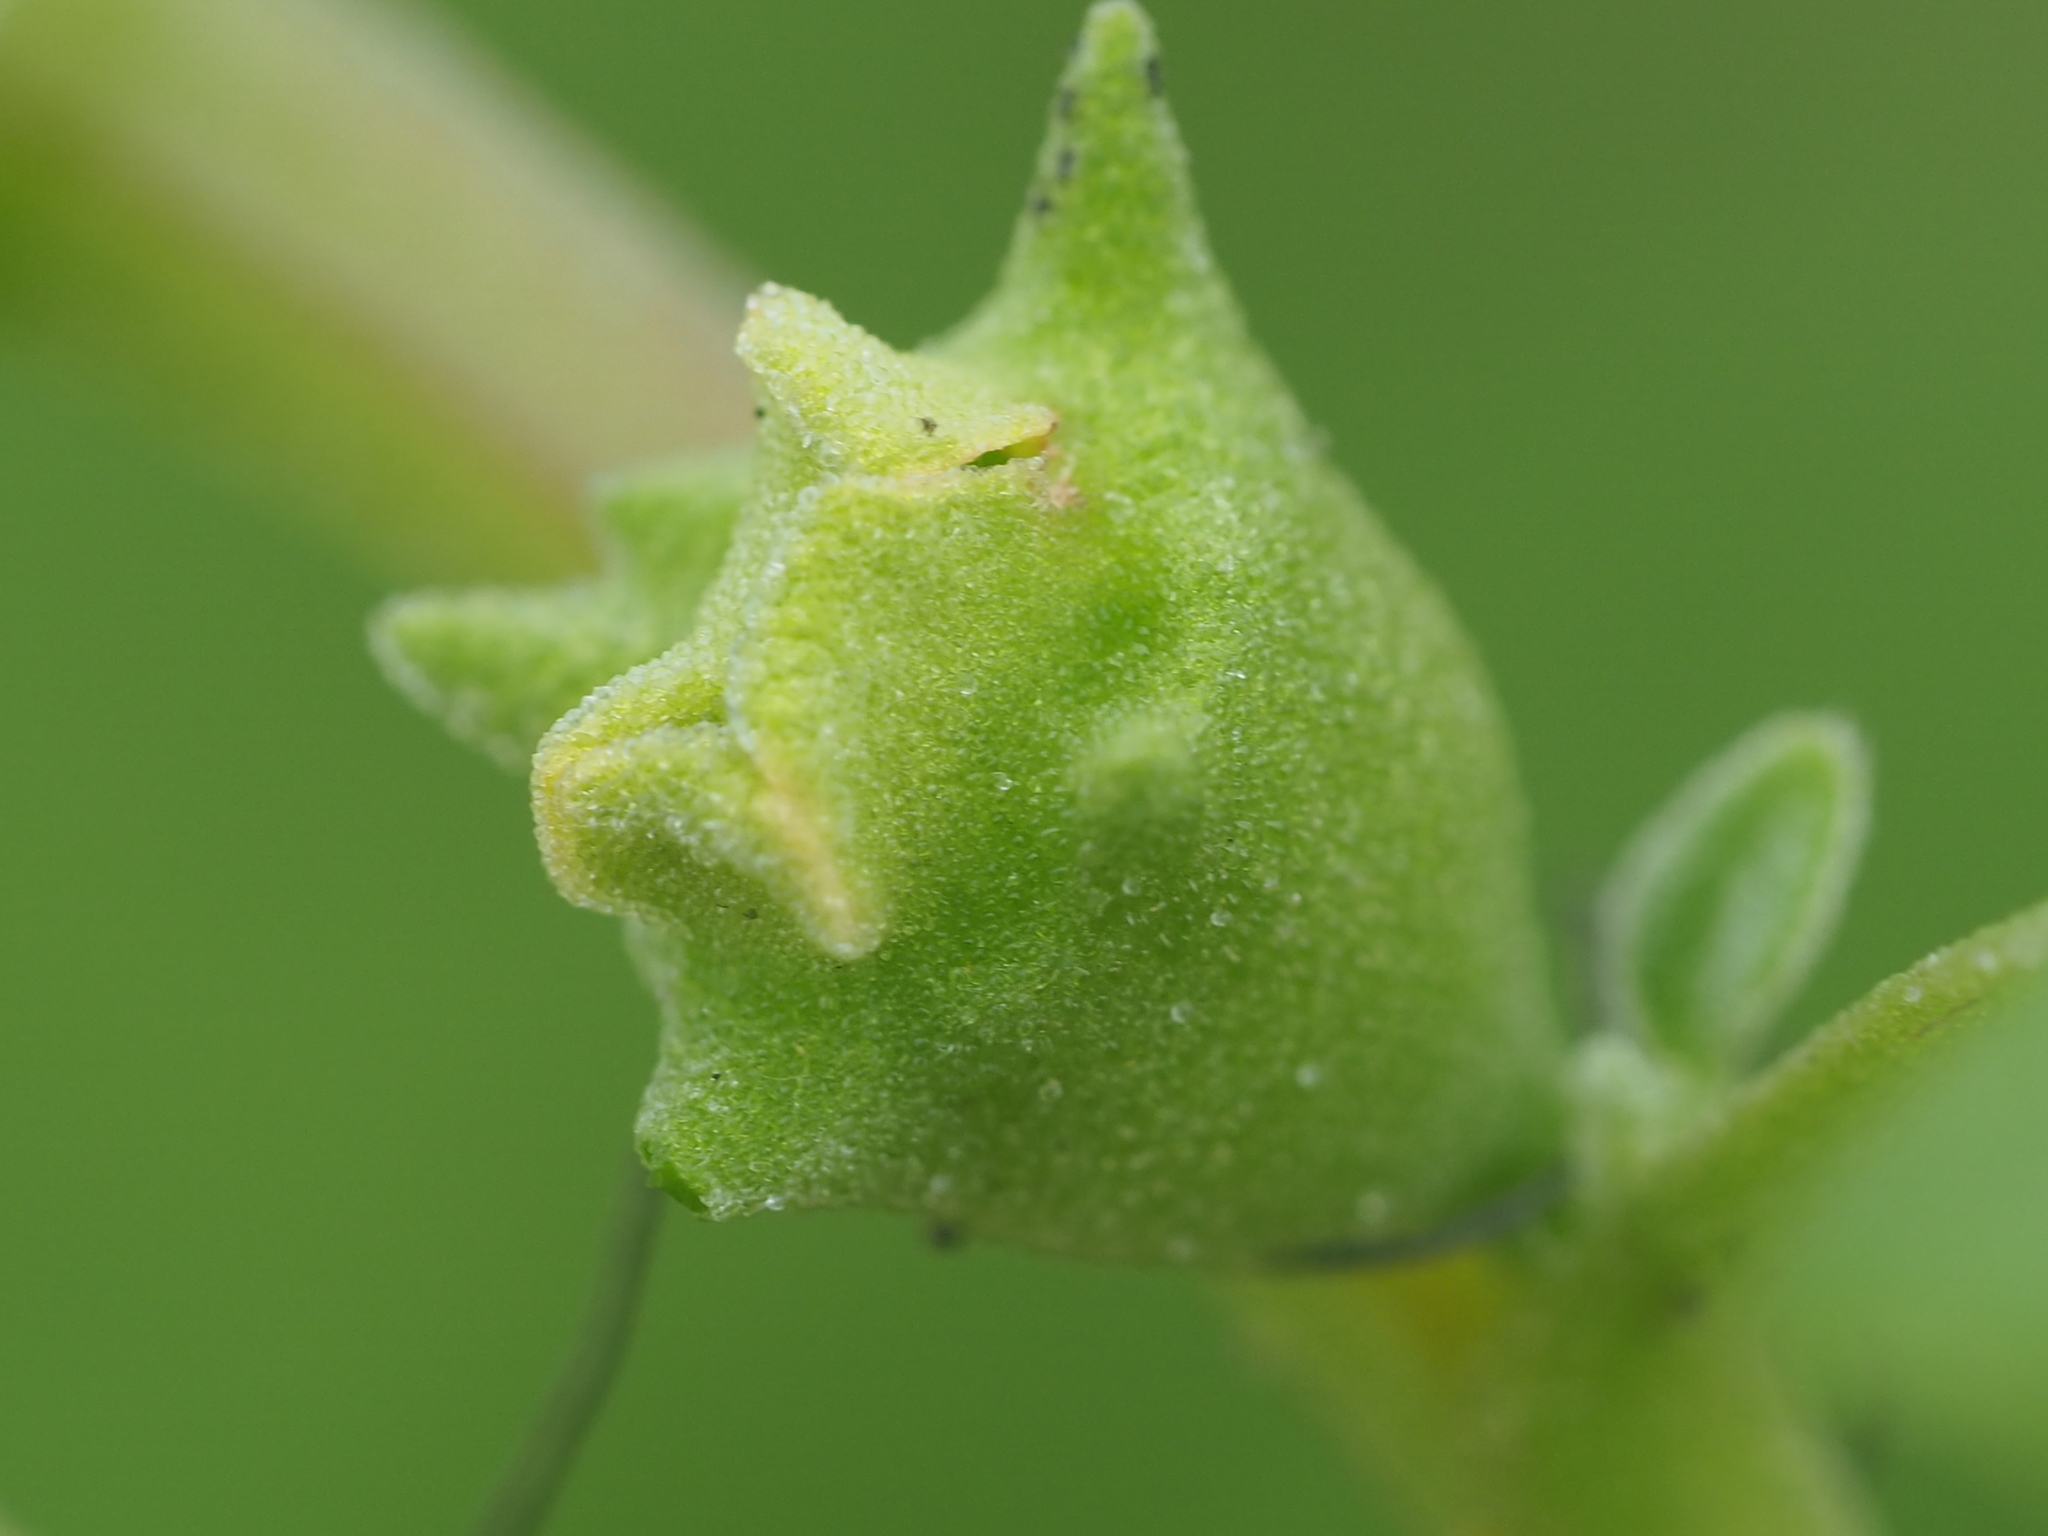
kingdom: Plantae
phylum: Tracheophyta
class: Magnoliopsida
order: Caryophyllales
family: Aizoaceae
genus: Tetragonia
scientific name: Tetragonia tetragonoides
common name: New zealand-spinach
